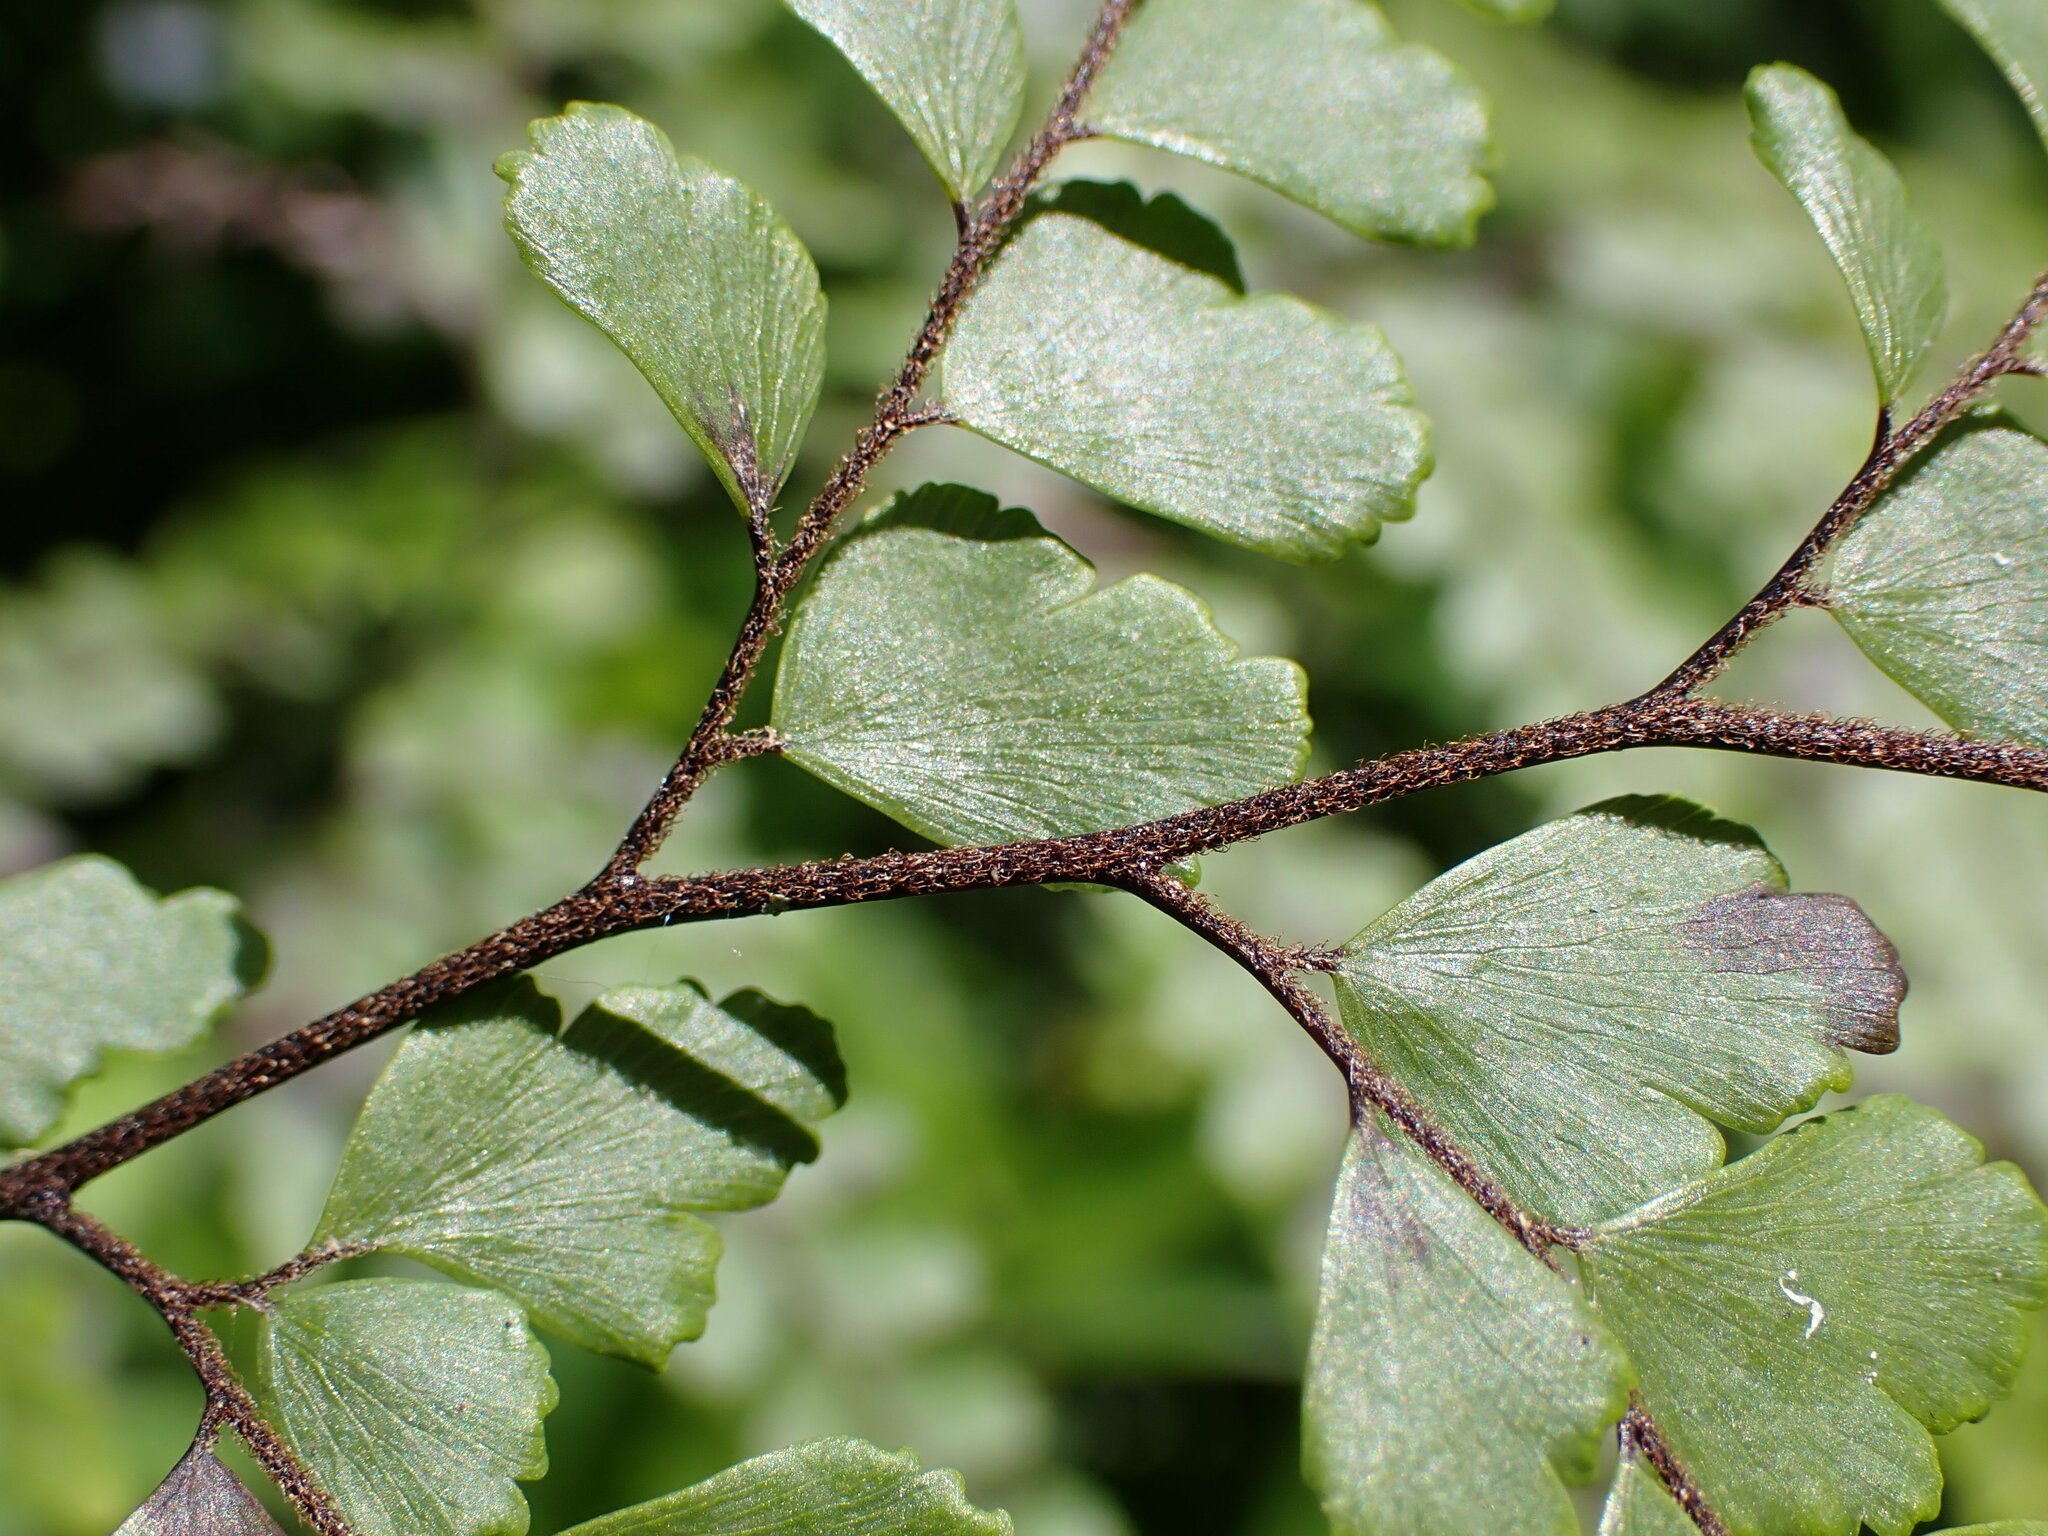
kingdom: Plantae
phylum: Tracheophyta
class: Polypodiopsida
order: Polypodiales
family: Pteridaceae
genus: Adiantum
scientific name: Adiantum formosum
